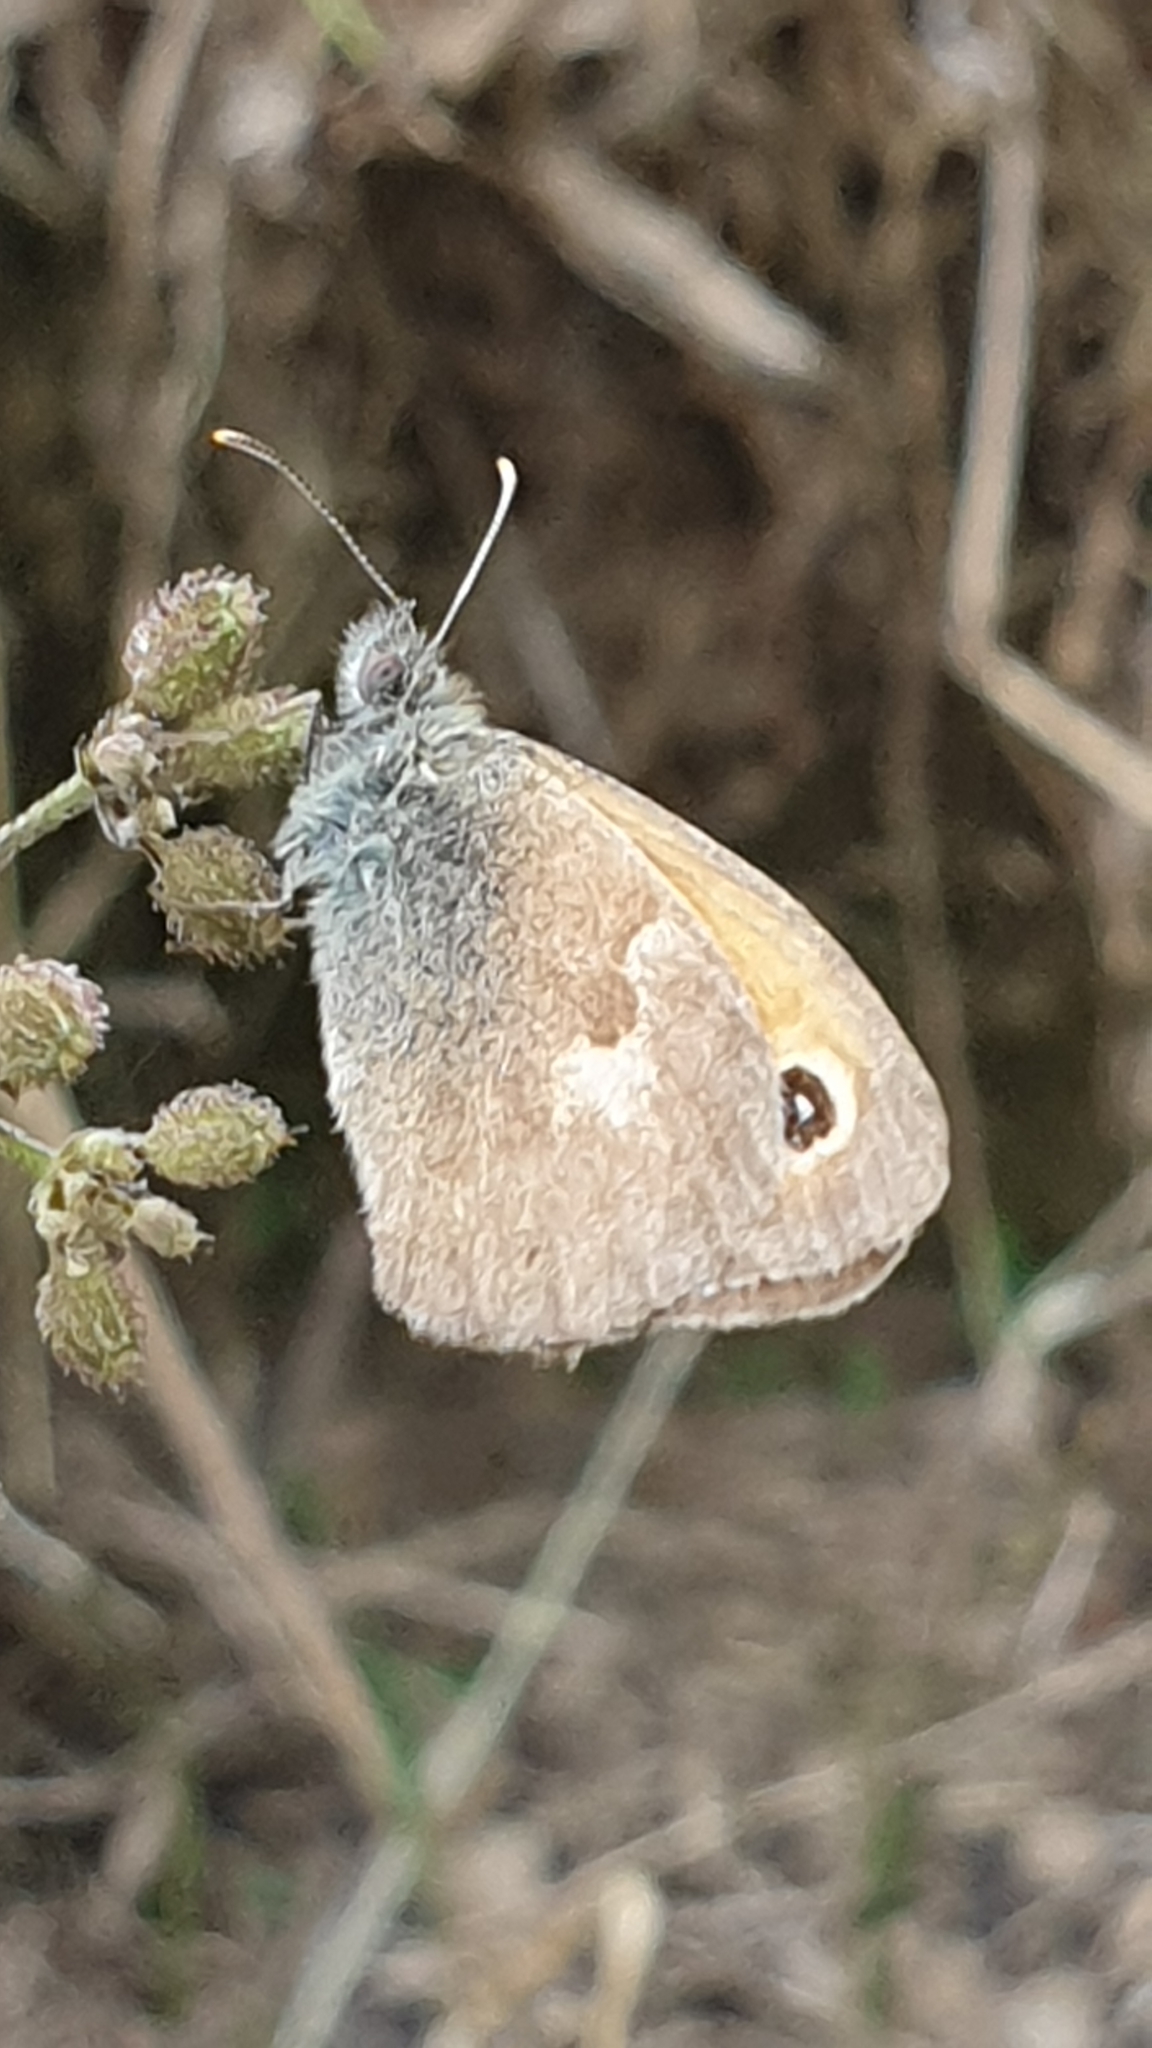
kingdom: Animalia
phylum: Arthropoda
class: Insecta
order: Lepidoptera
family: Nymphalidae
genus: Coenonympha
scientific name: Coenonympha pamphilus
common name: Small heath
